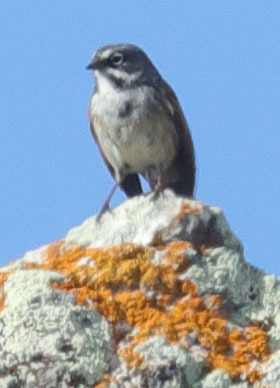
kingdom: Animalia
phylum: Chordata
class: Aves
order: Passeriformes
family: Passerellidae
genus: Artemisiospiza
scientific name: Artemisiospiza belli
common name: Bell's sparrow
